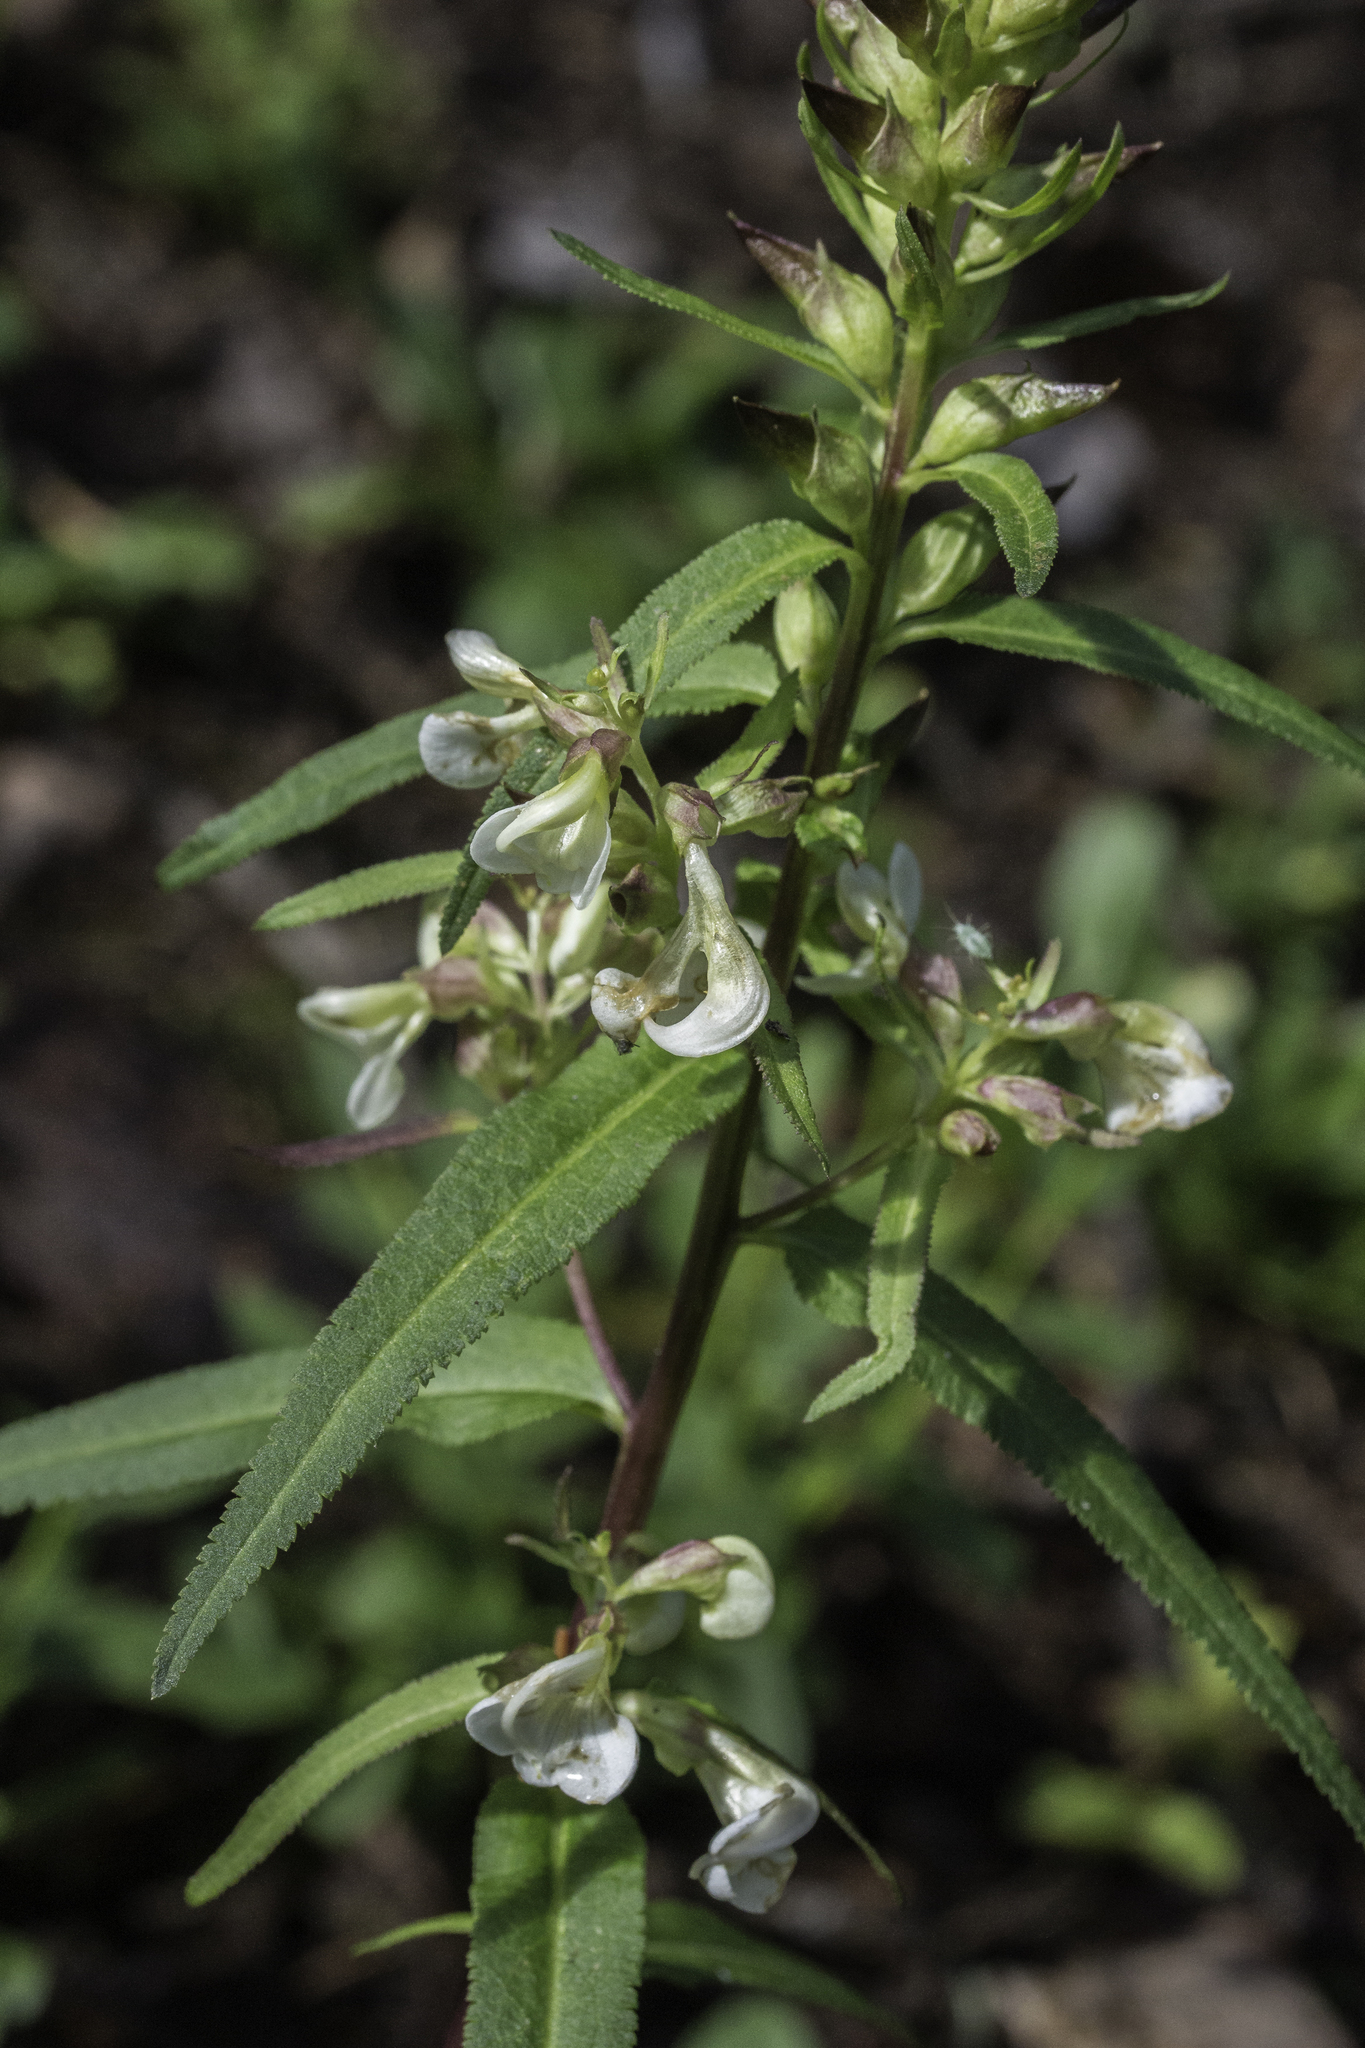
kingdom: Plantae
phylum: Tracheophyta
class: Magnoliopsida
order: Lamiales
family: Orobanchaceae
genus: Pedicularis
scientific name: Pedicularis racemosa
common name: Leafy lousewort
